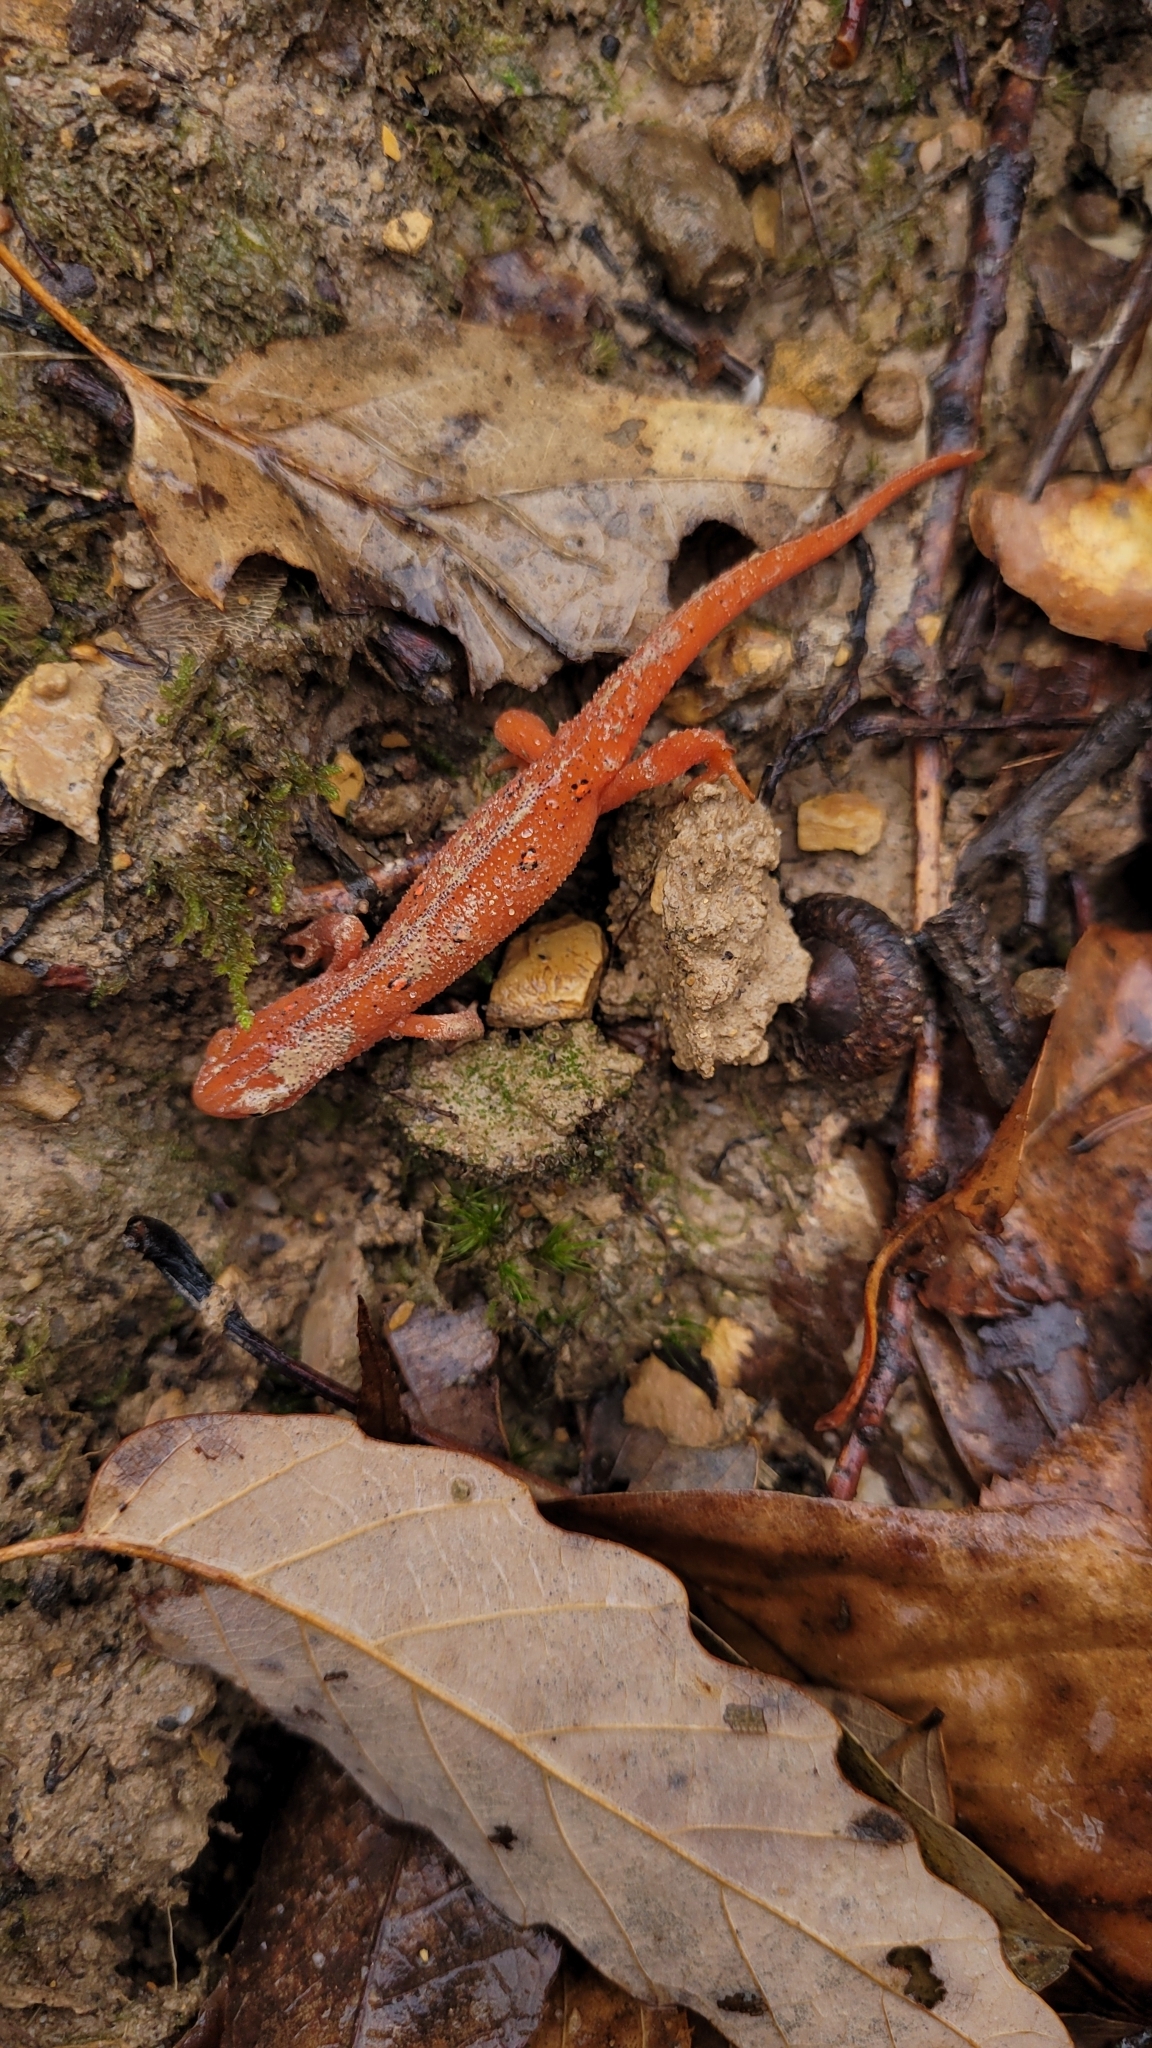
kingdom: Animalia
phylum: Chordata
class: Amphibia
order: Caudata
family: Salamandridae
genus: Notophthalmus
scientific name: Notophthalmus viridescens
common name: Eastern newt
